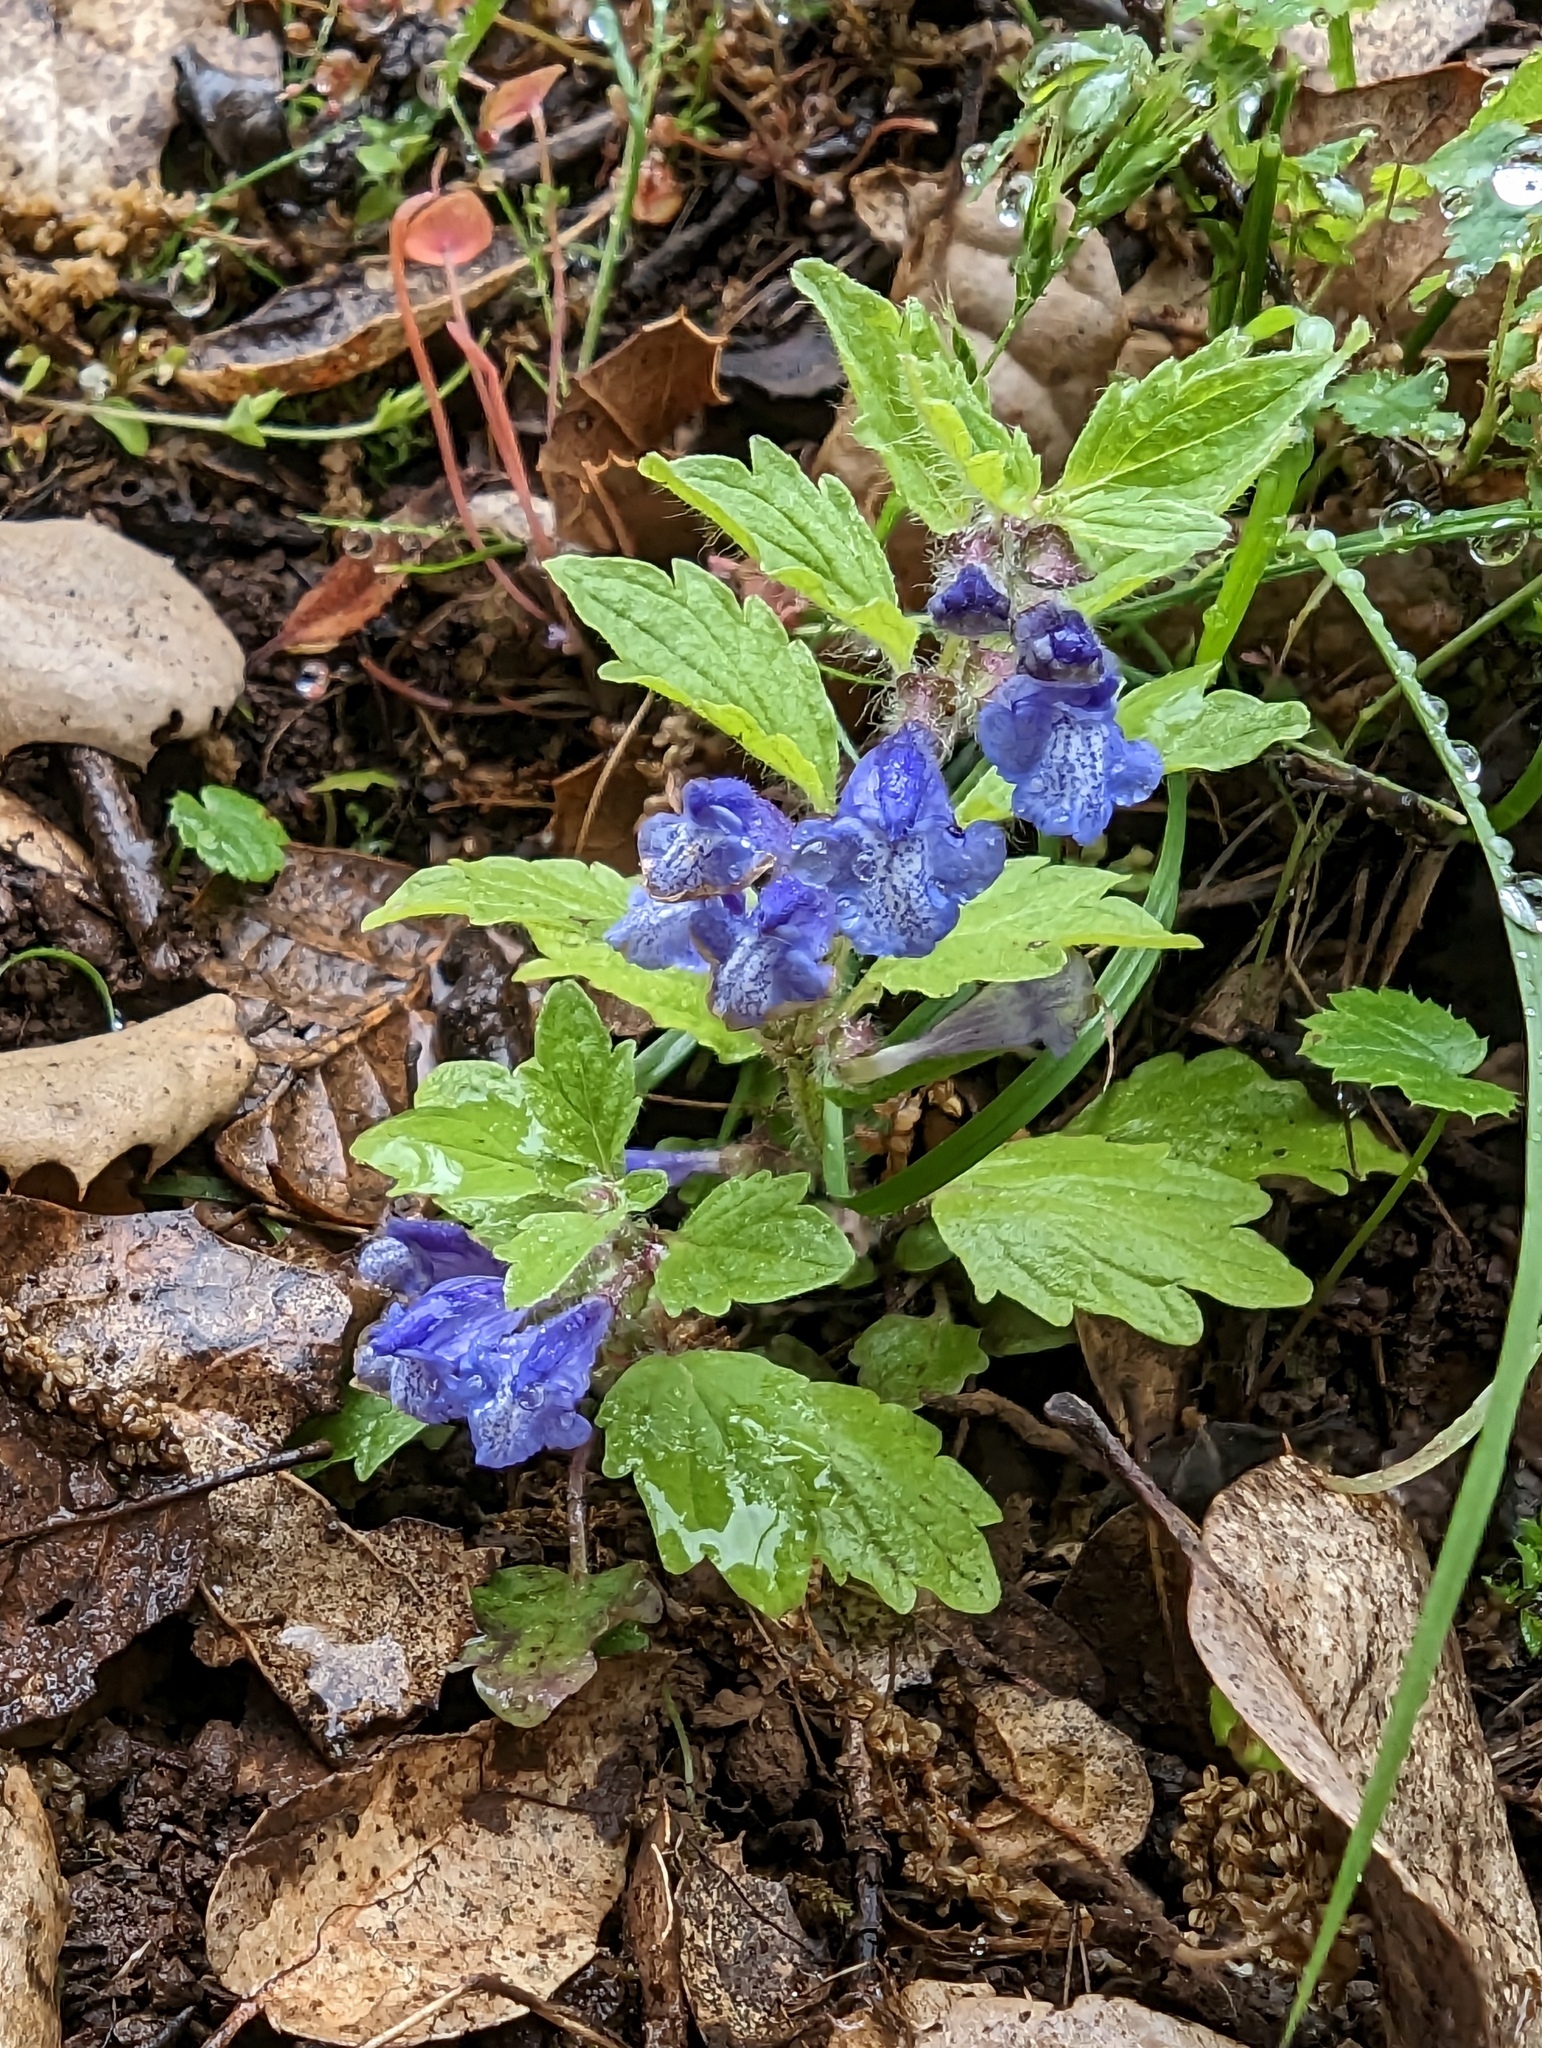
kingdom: Plantae
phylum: Tracheophyta
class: Magnoliopsida
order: Lamiales
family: Lamiaceae
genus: Scutellaria
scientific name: Scutellaria tuberosa
